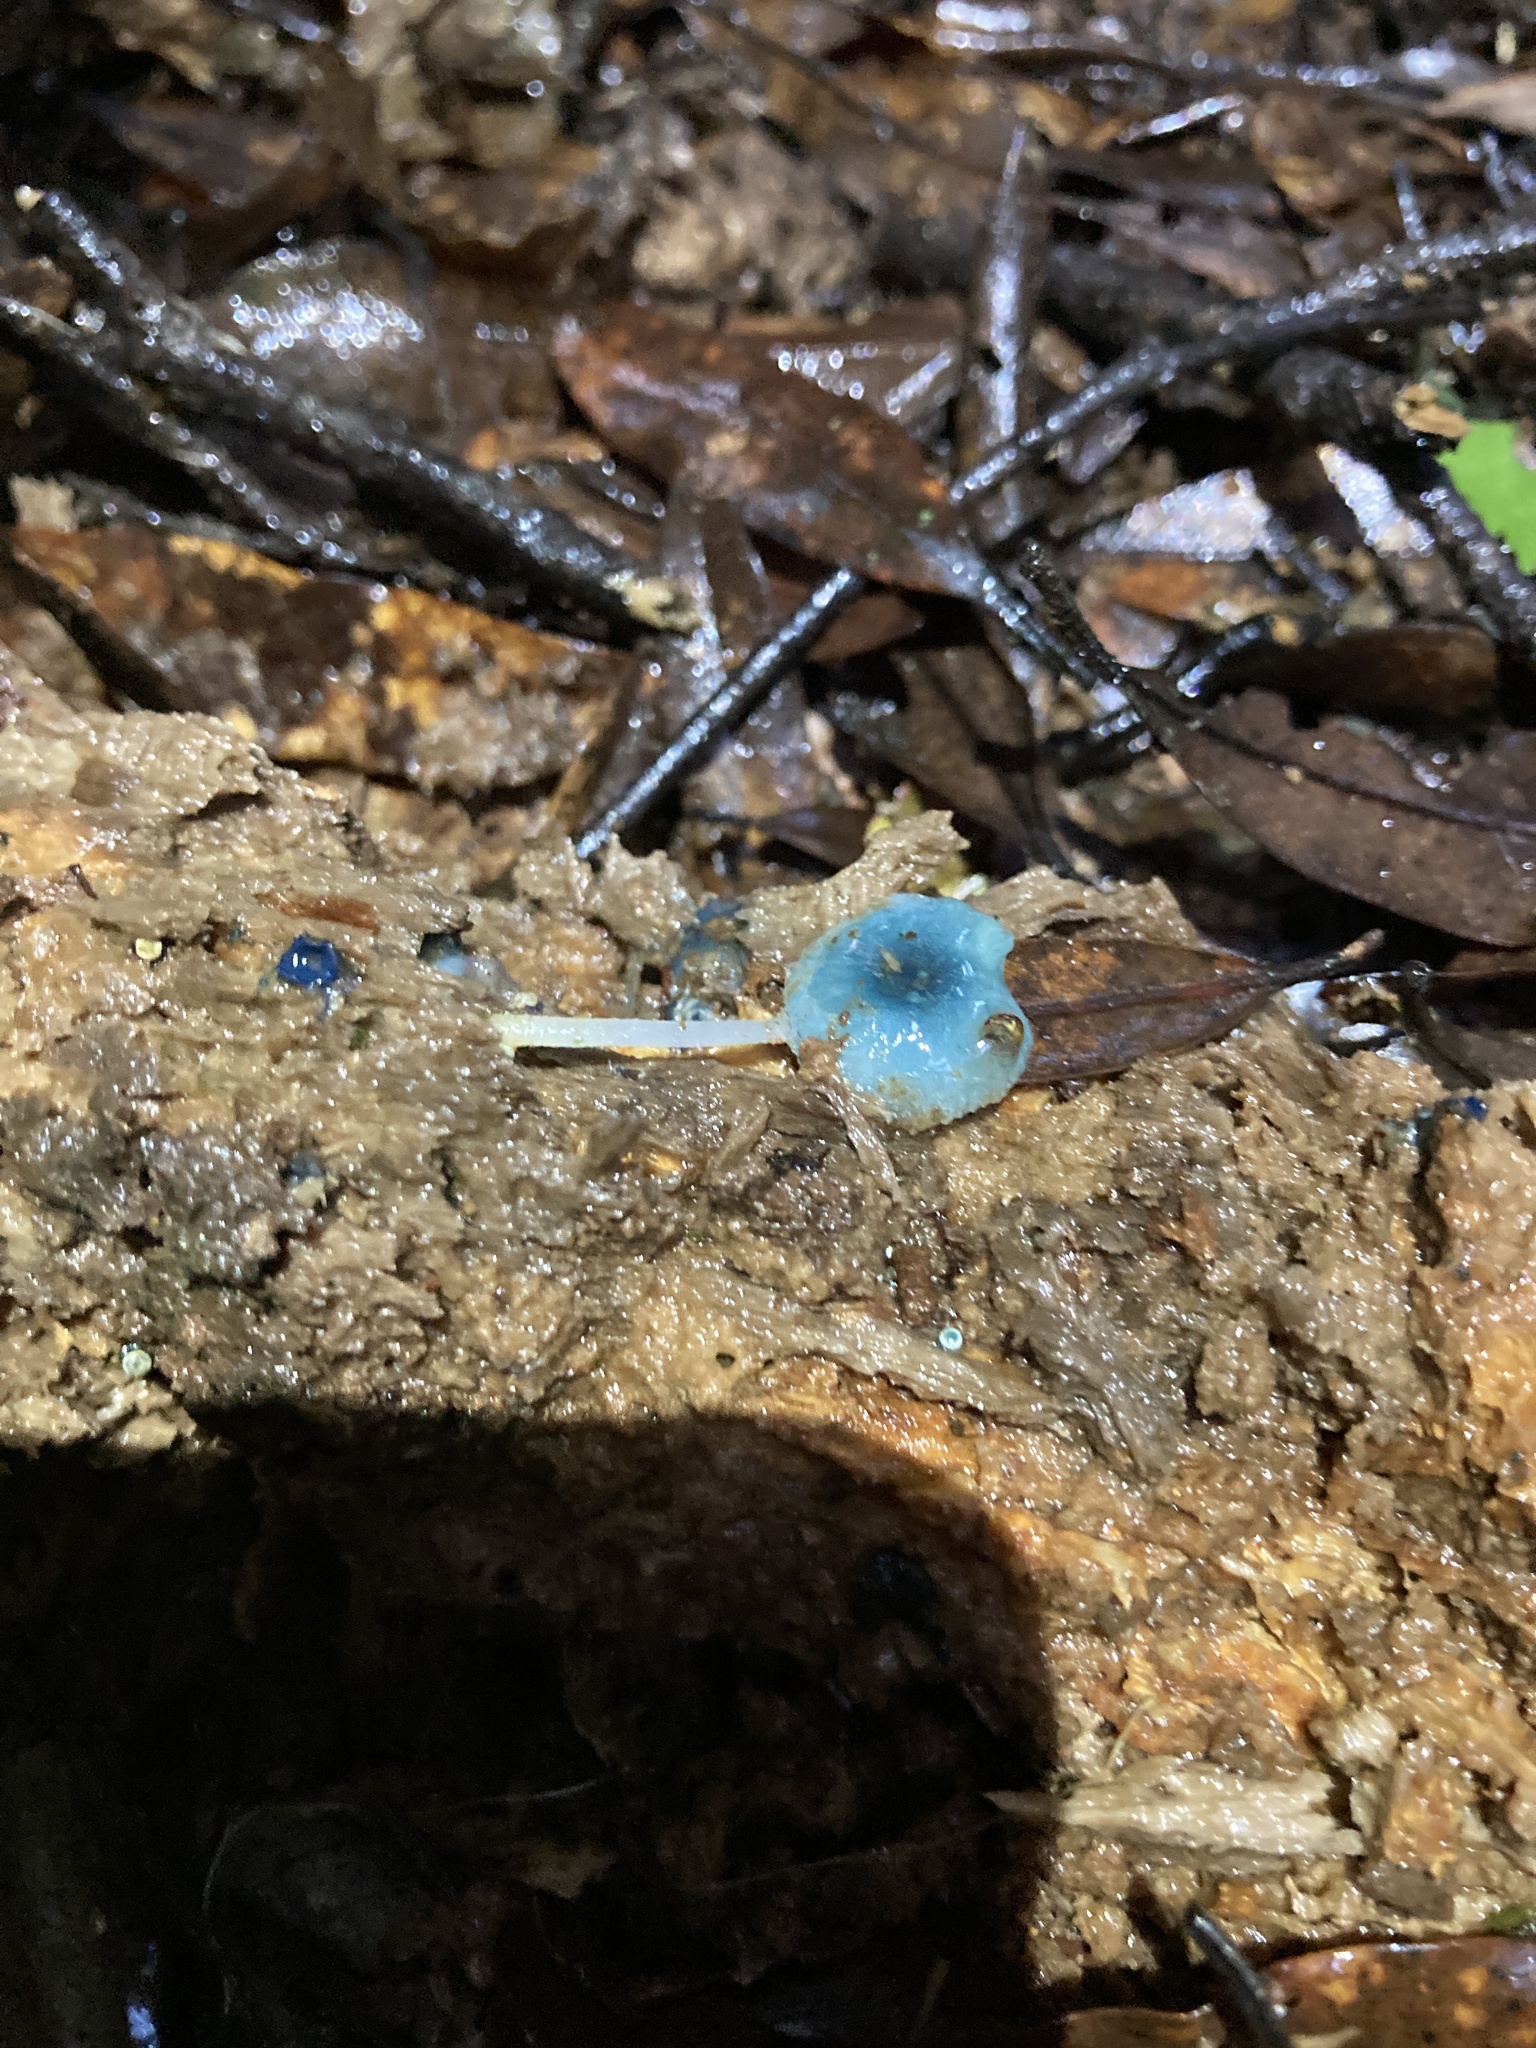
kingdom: Fungi
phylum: Basidiomycota
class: Agaricomycetes
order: Agaricales
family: Mycenaceae
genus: Mycena
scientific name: Mycena interrupta
